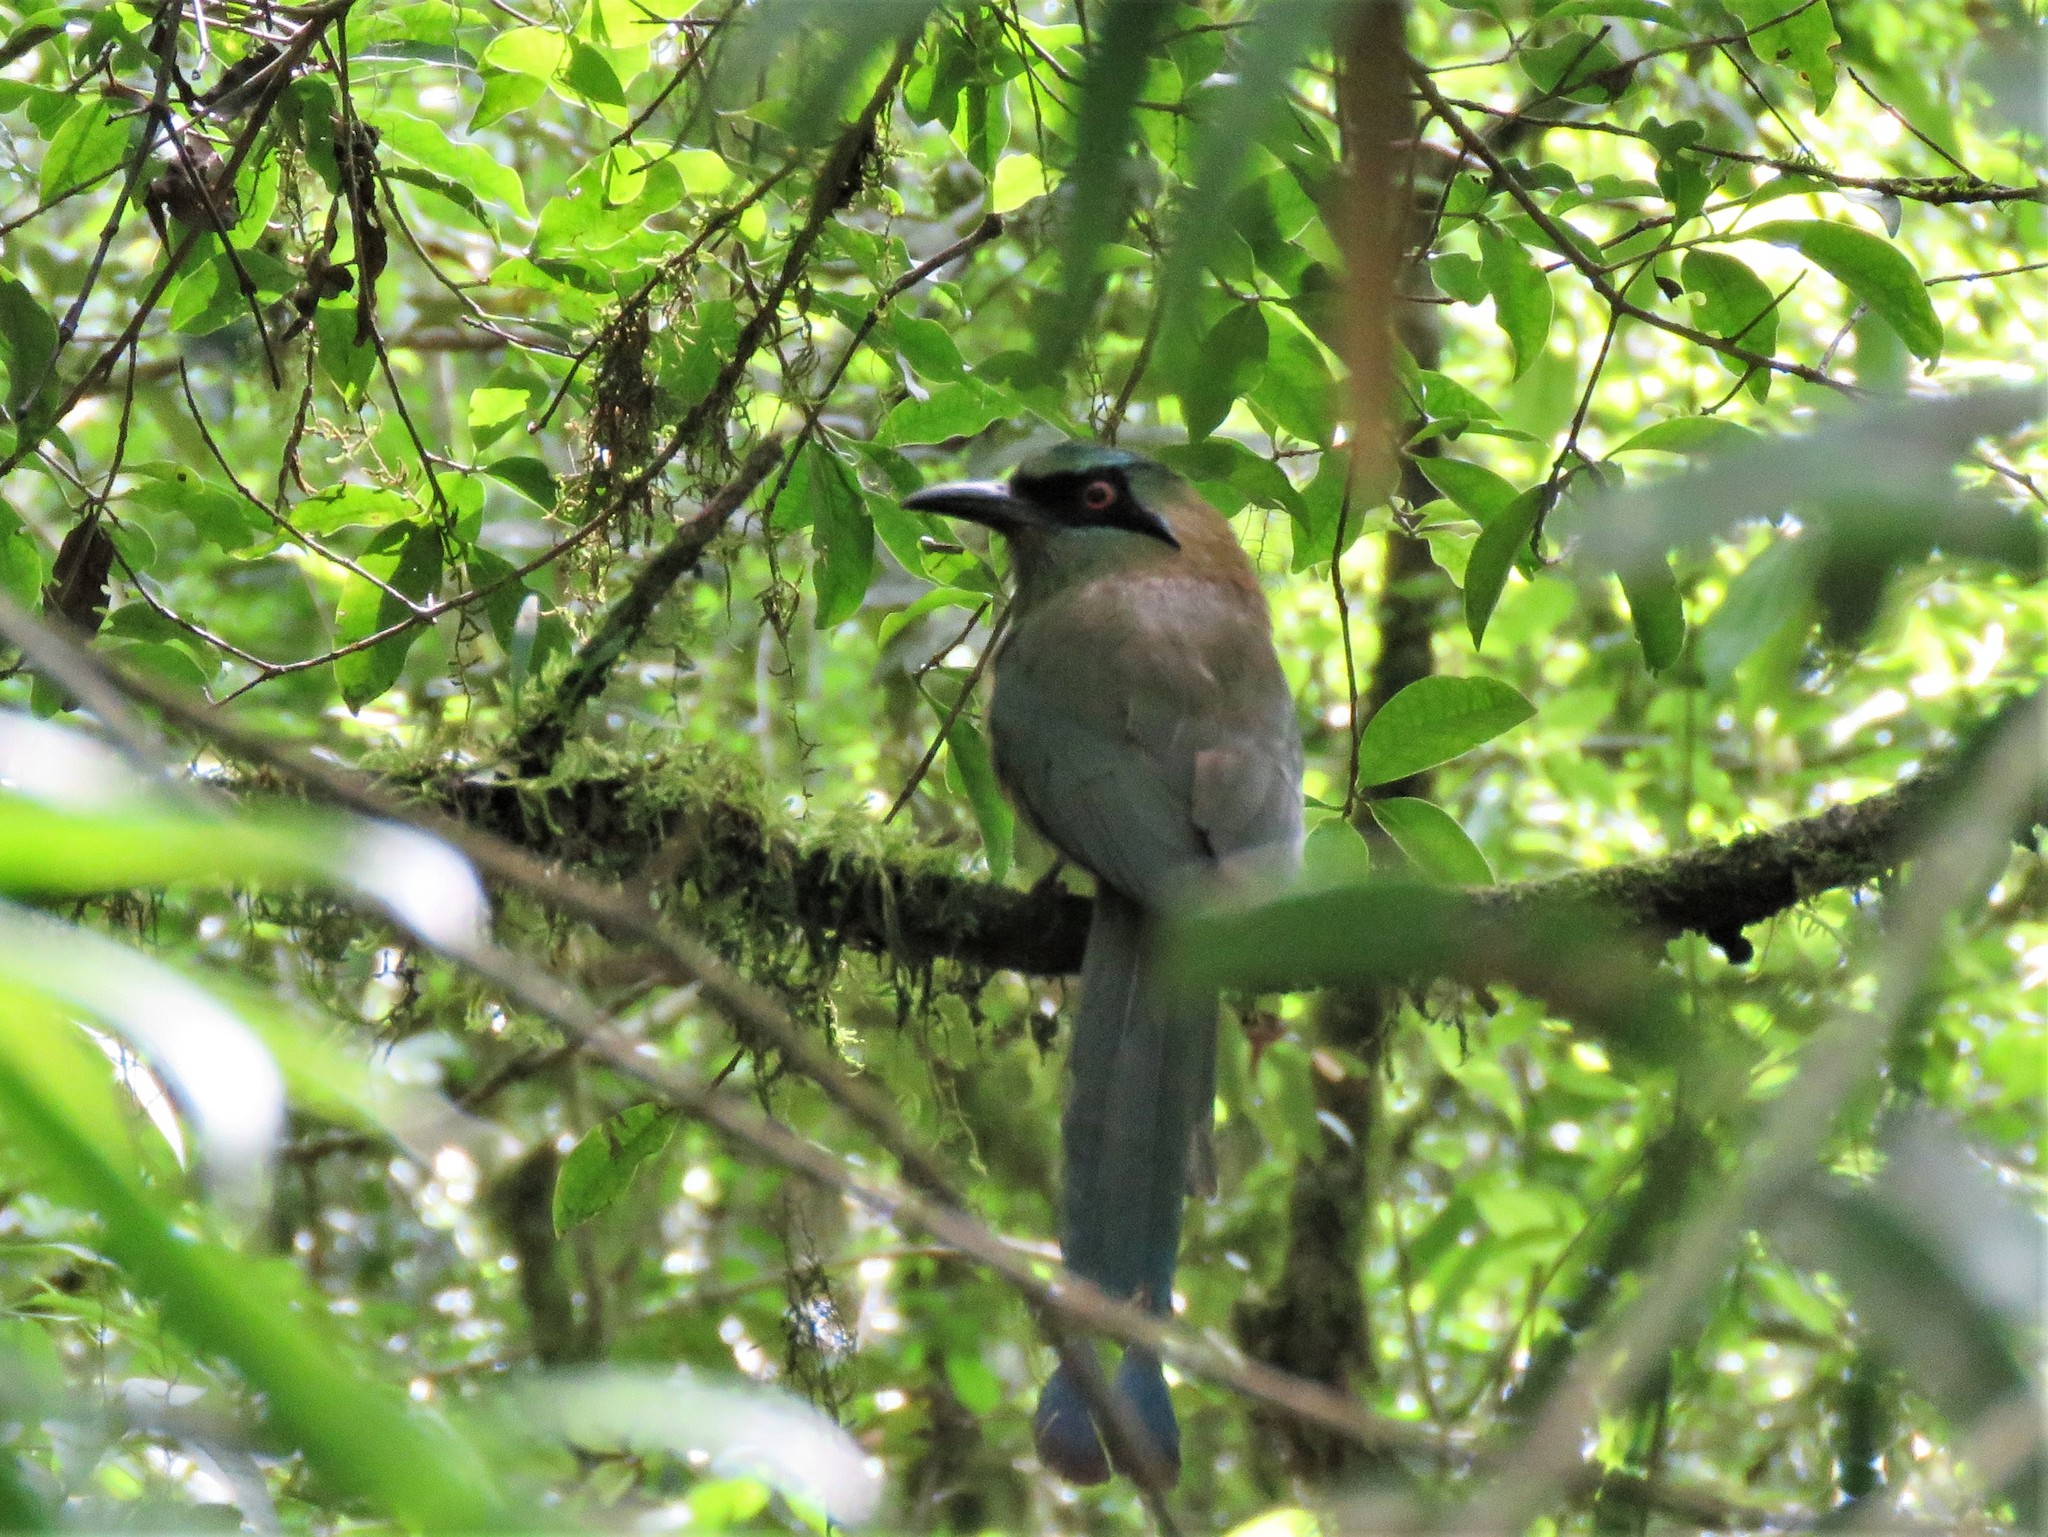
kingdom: Animalia
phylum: Chordata
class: Aves
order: Coraciiformes
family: Momotidae
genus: Momotus
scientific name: Momotus coeruliceps
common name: Blue-capped motmot
